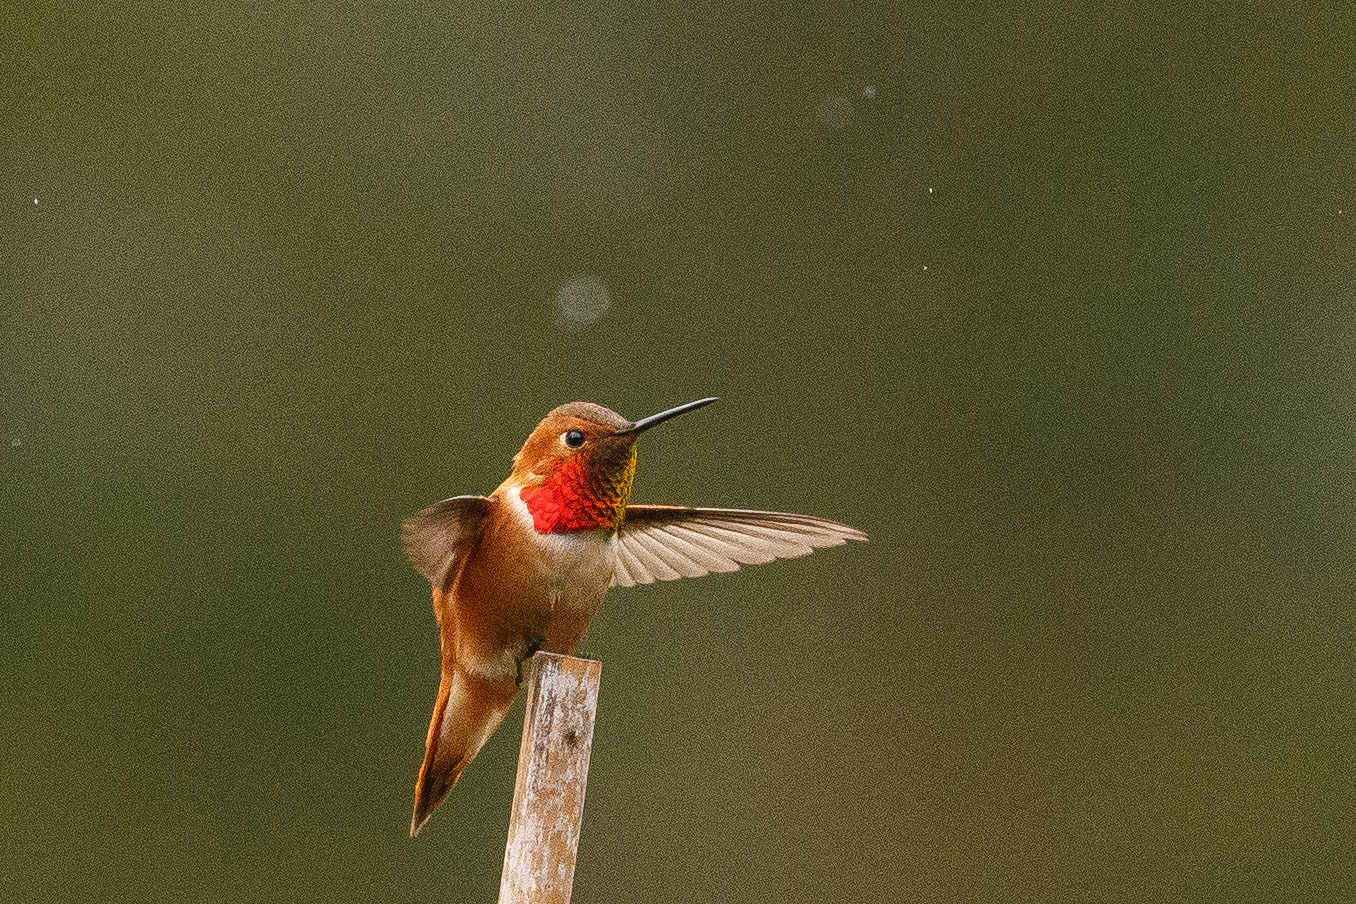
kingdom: Animalia
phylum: Chordata
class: Aves
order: Apodiformes
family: Trochilidae
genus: Selasphorus
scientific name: Selasphorus rufus
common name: Rufous hummingbird
